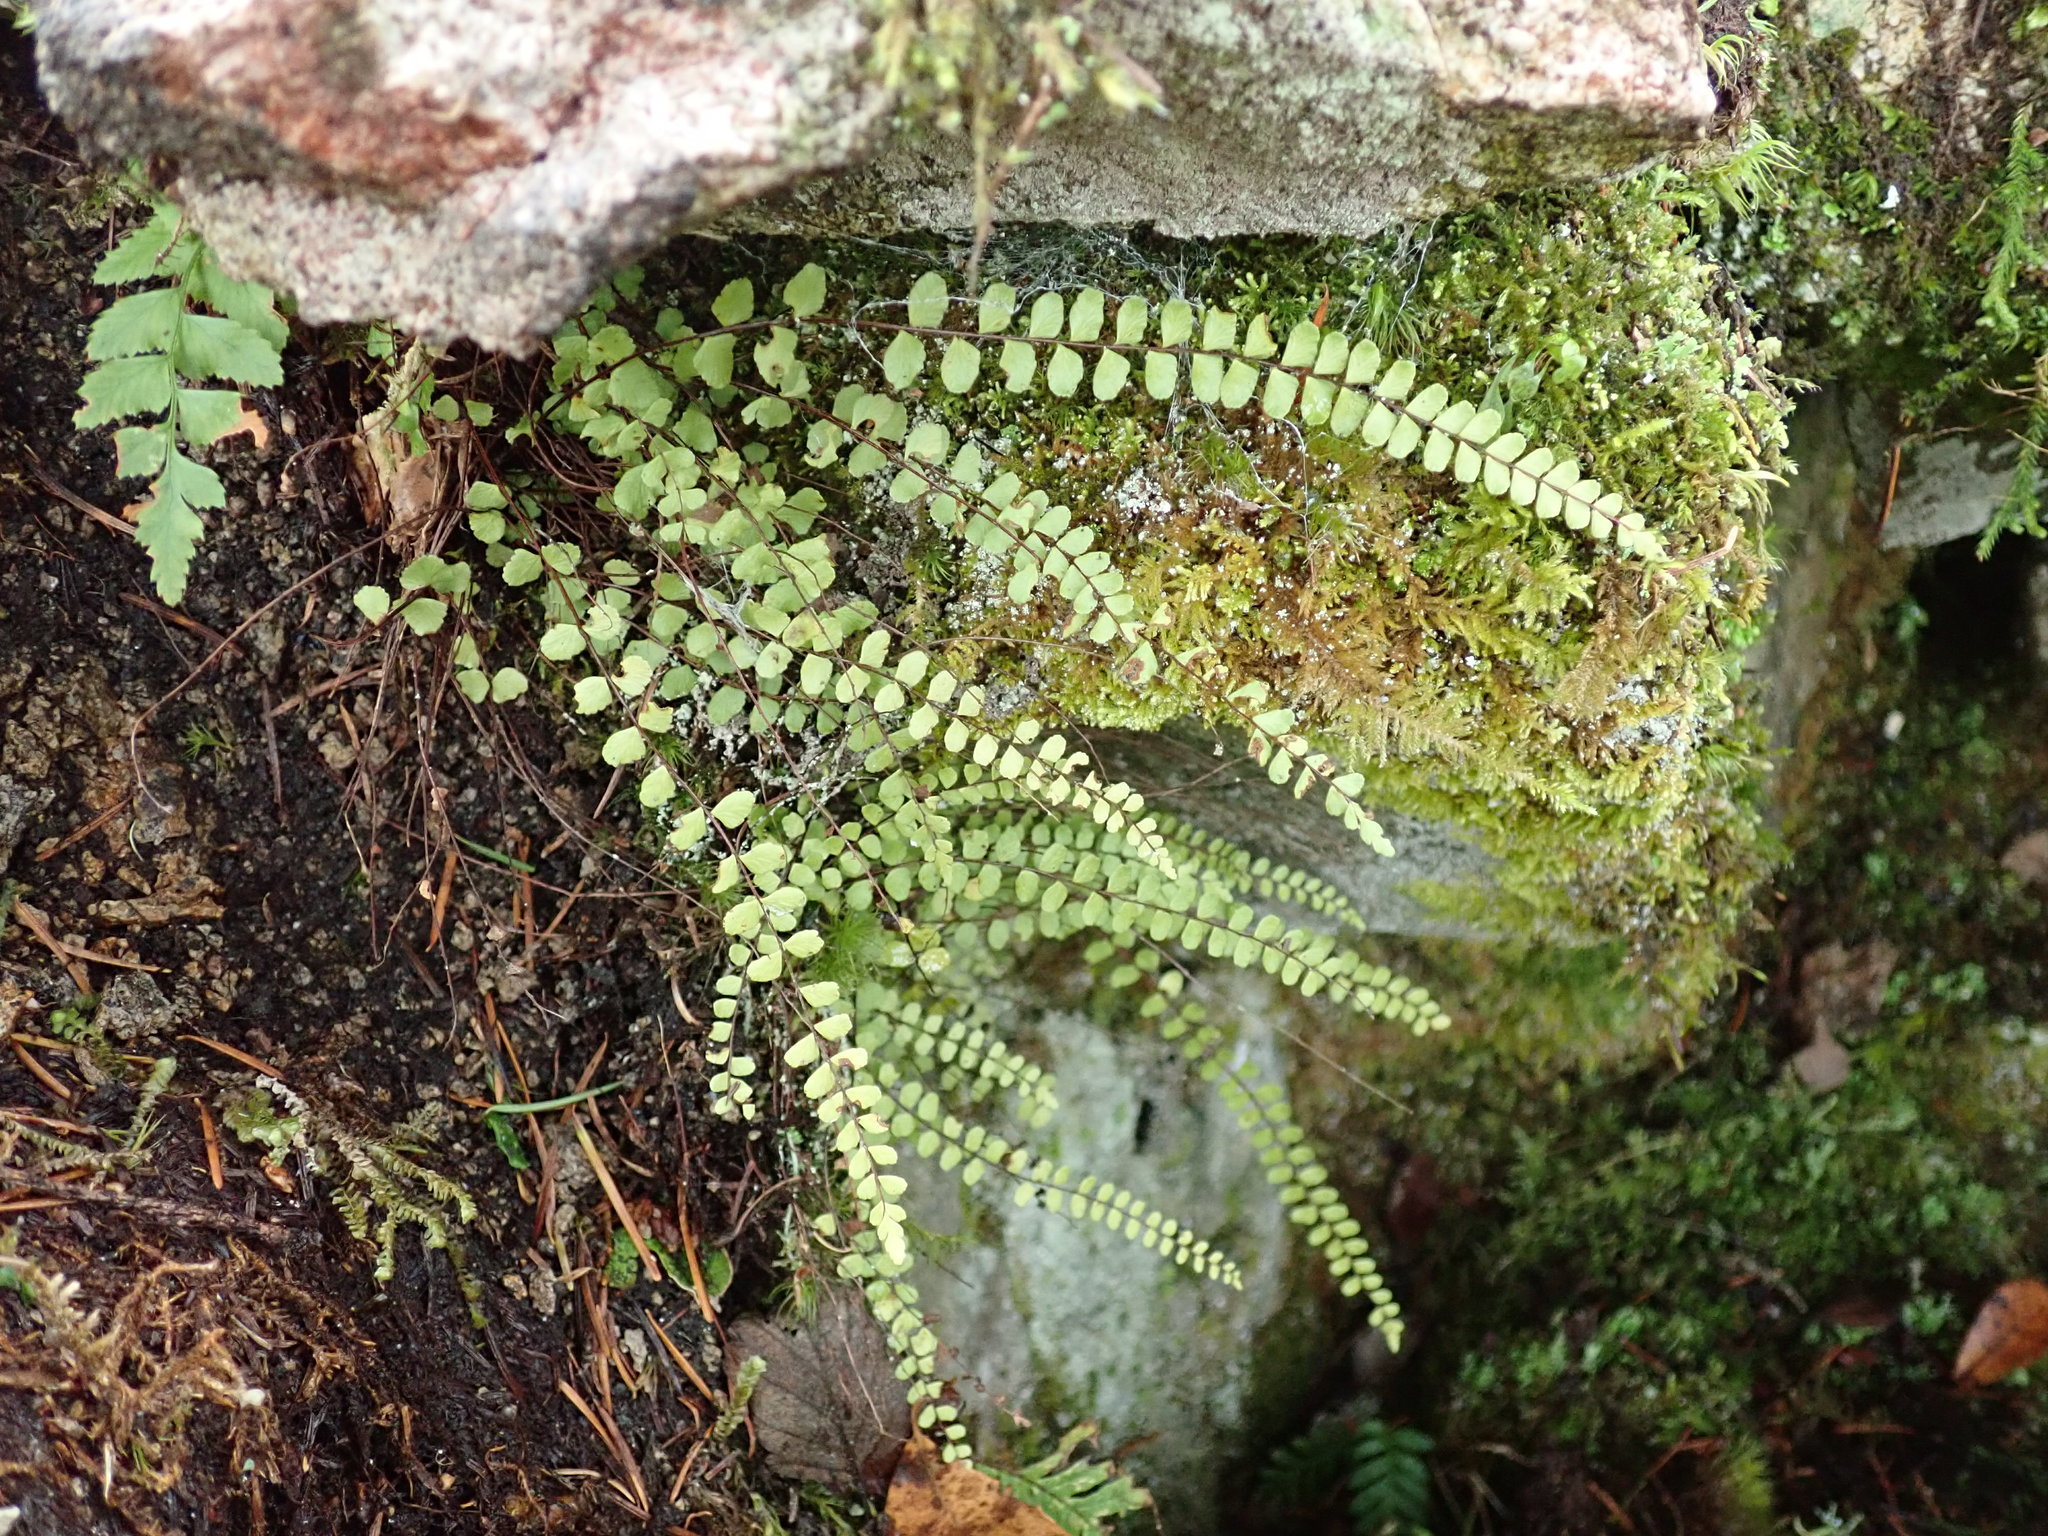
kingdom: Plantae
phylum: Tracheophyta
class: Polypodiopsida
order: Polypodiales
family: Aspleniaceae
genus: Asplenium
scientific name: Asplenium trichomanes
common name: Maidenhair spleenwort
